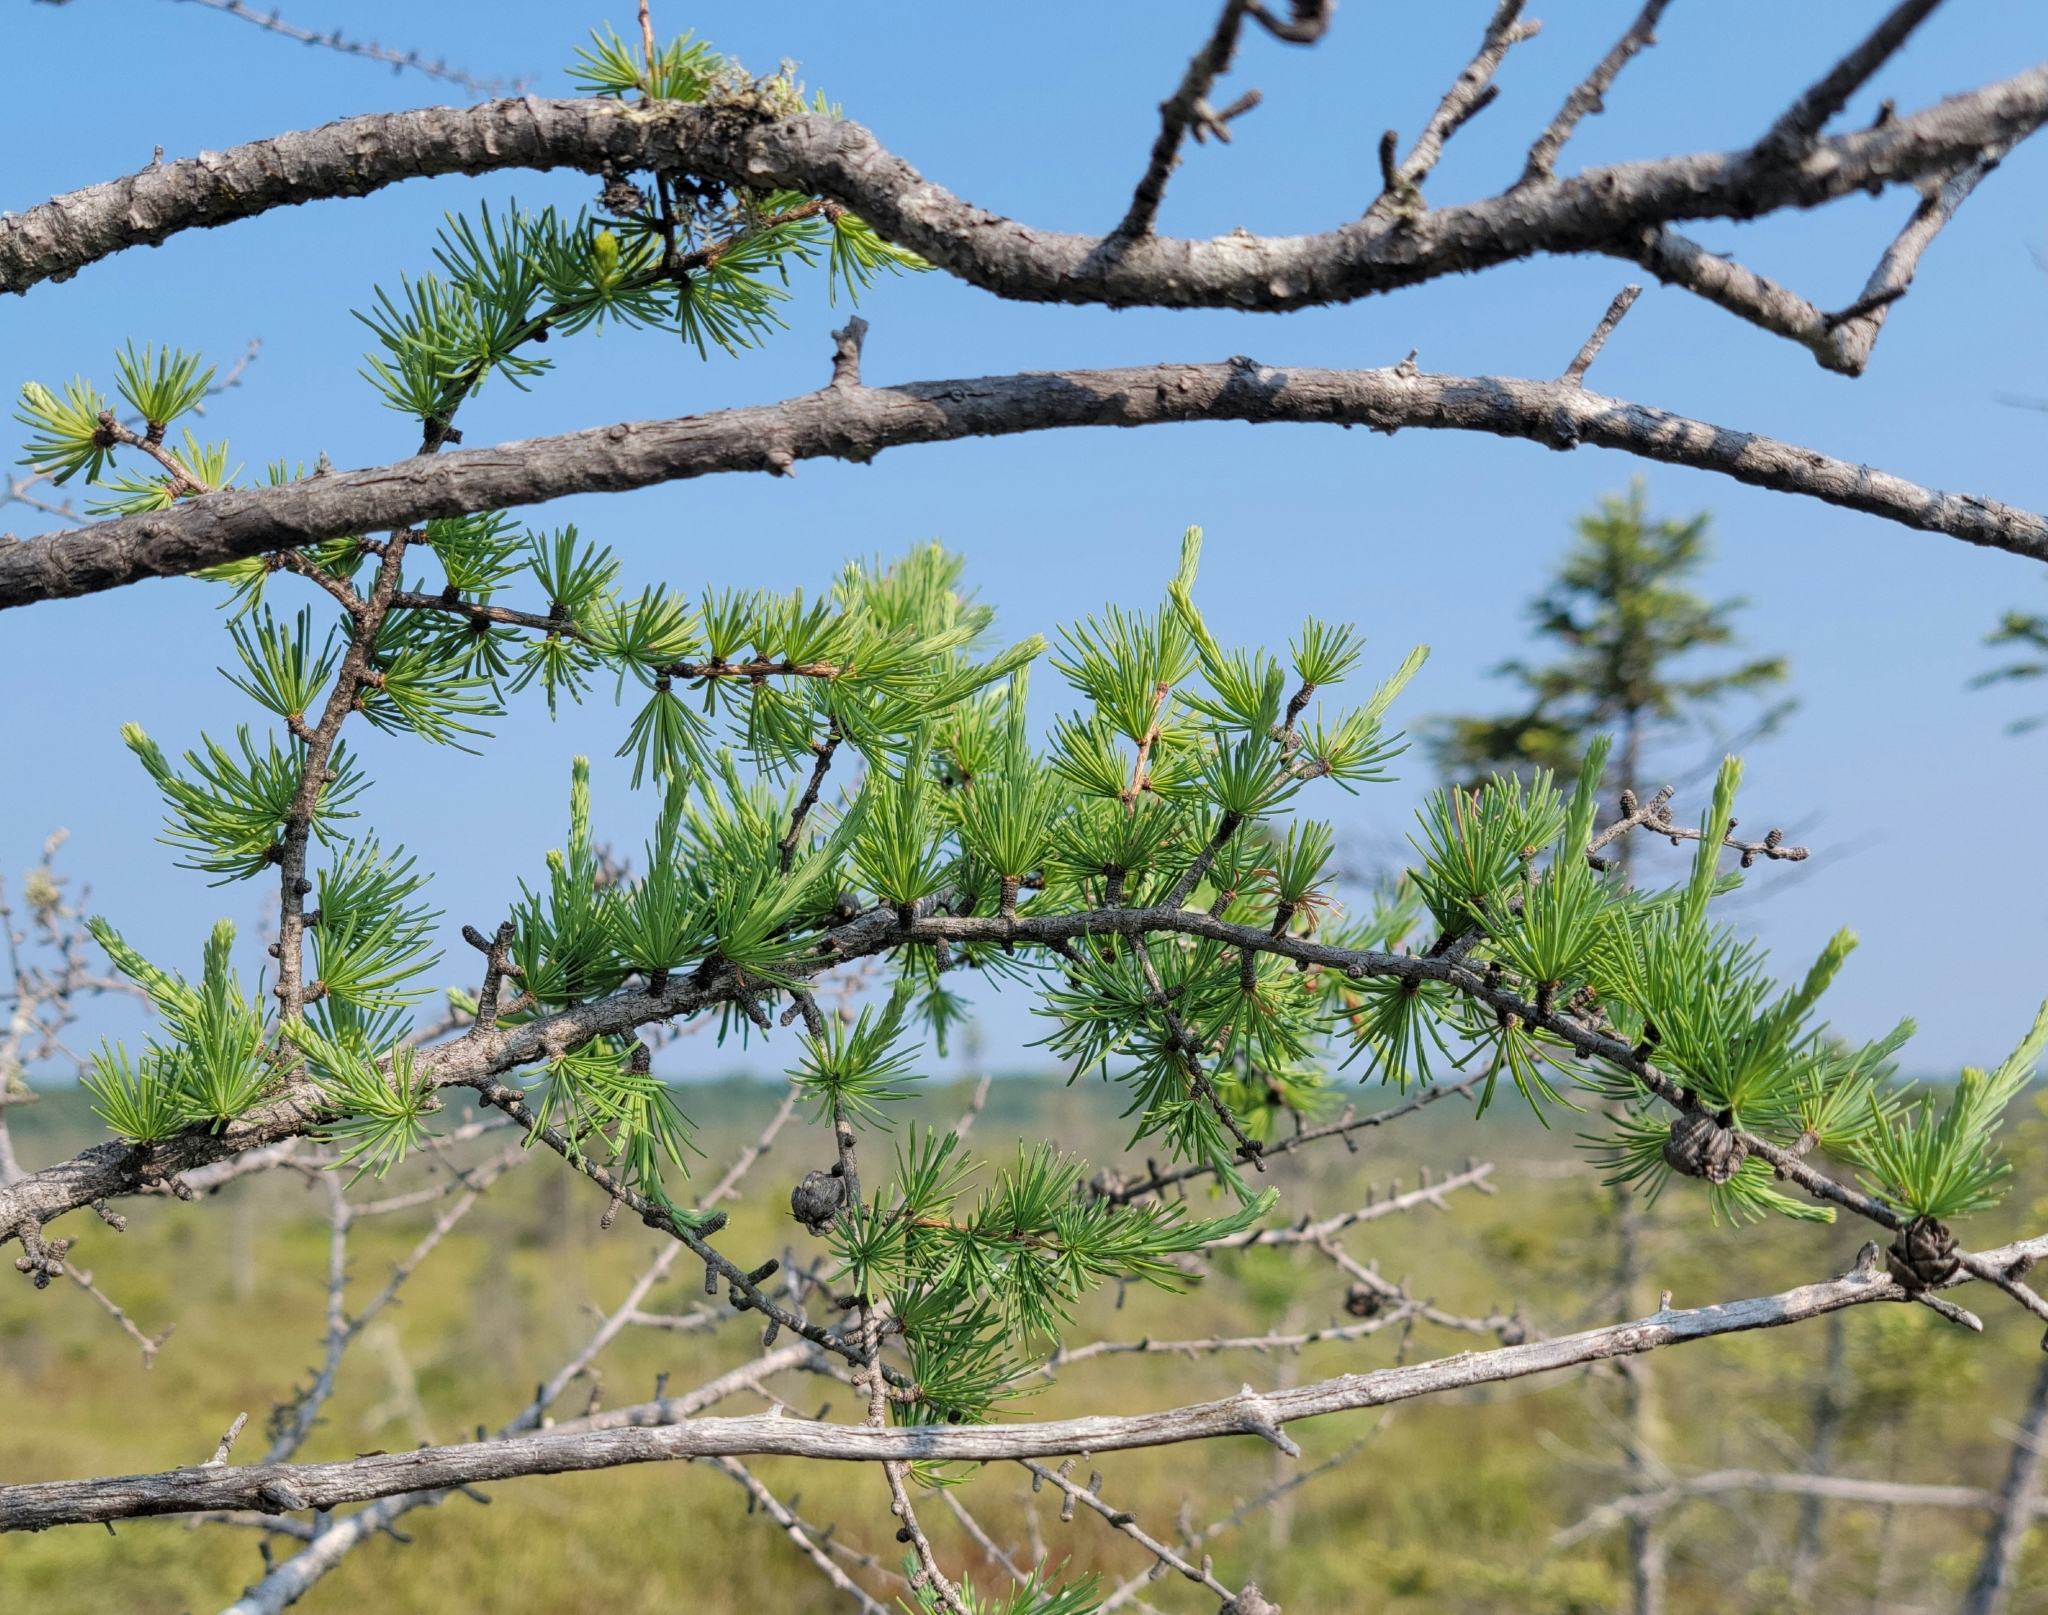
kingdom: Plantae
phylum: Tracheophyta
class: Pinopsida
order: Pinales
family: Pinaceae
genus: Larix
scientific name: Larix laricina
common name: American larch
